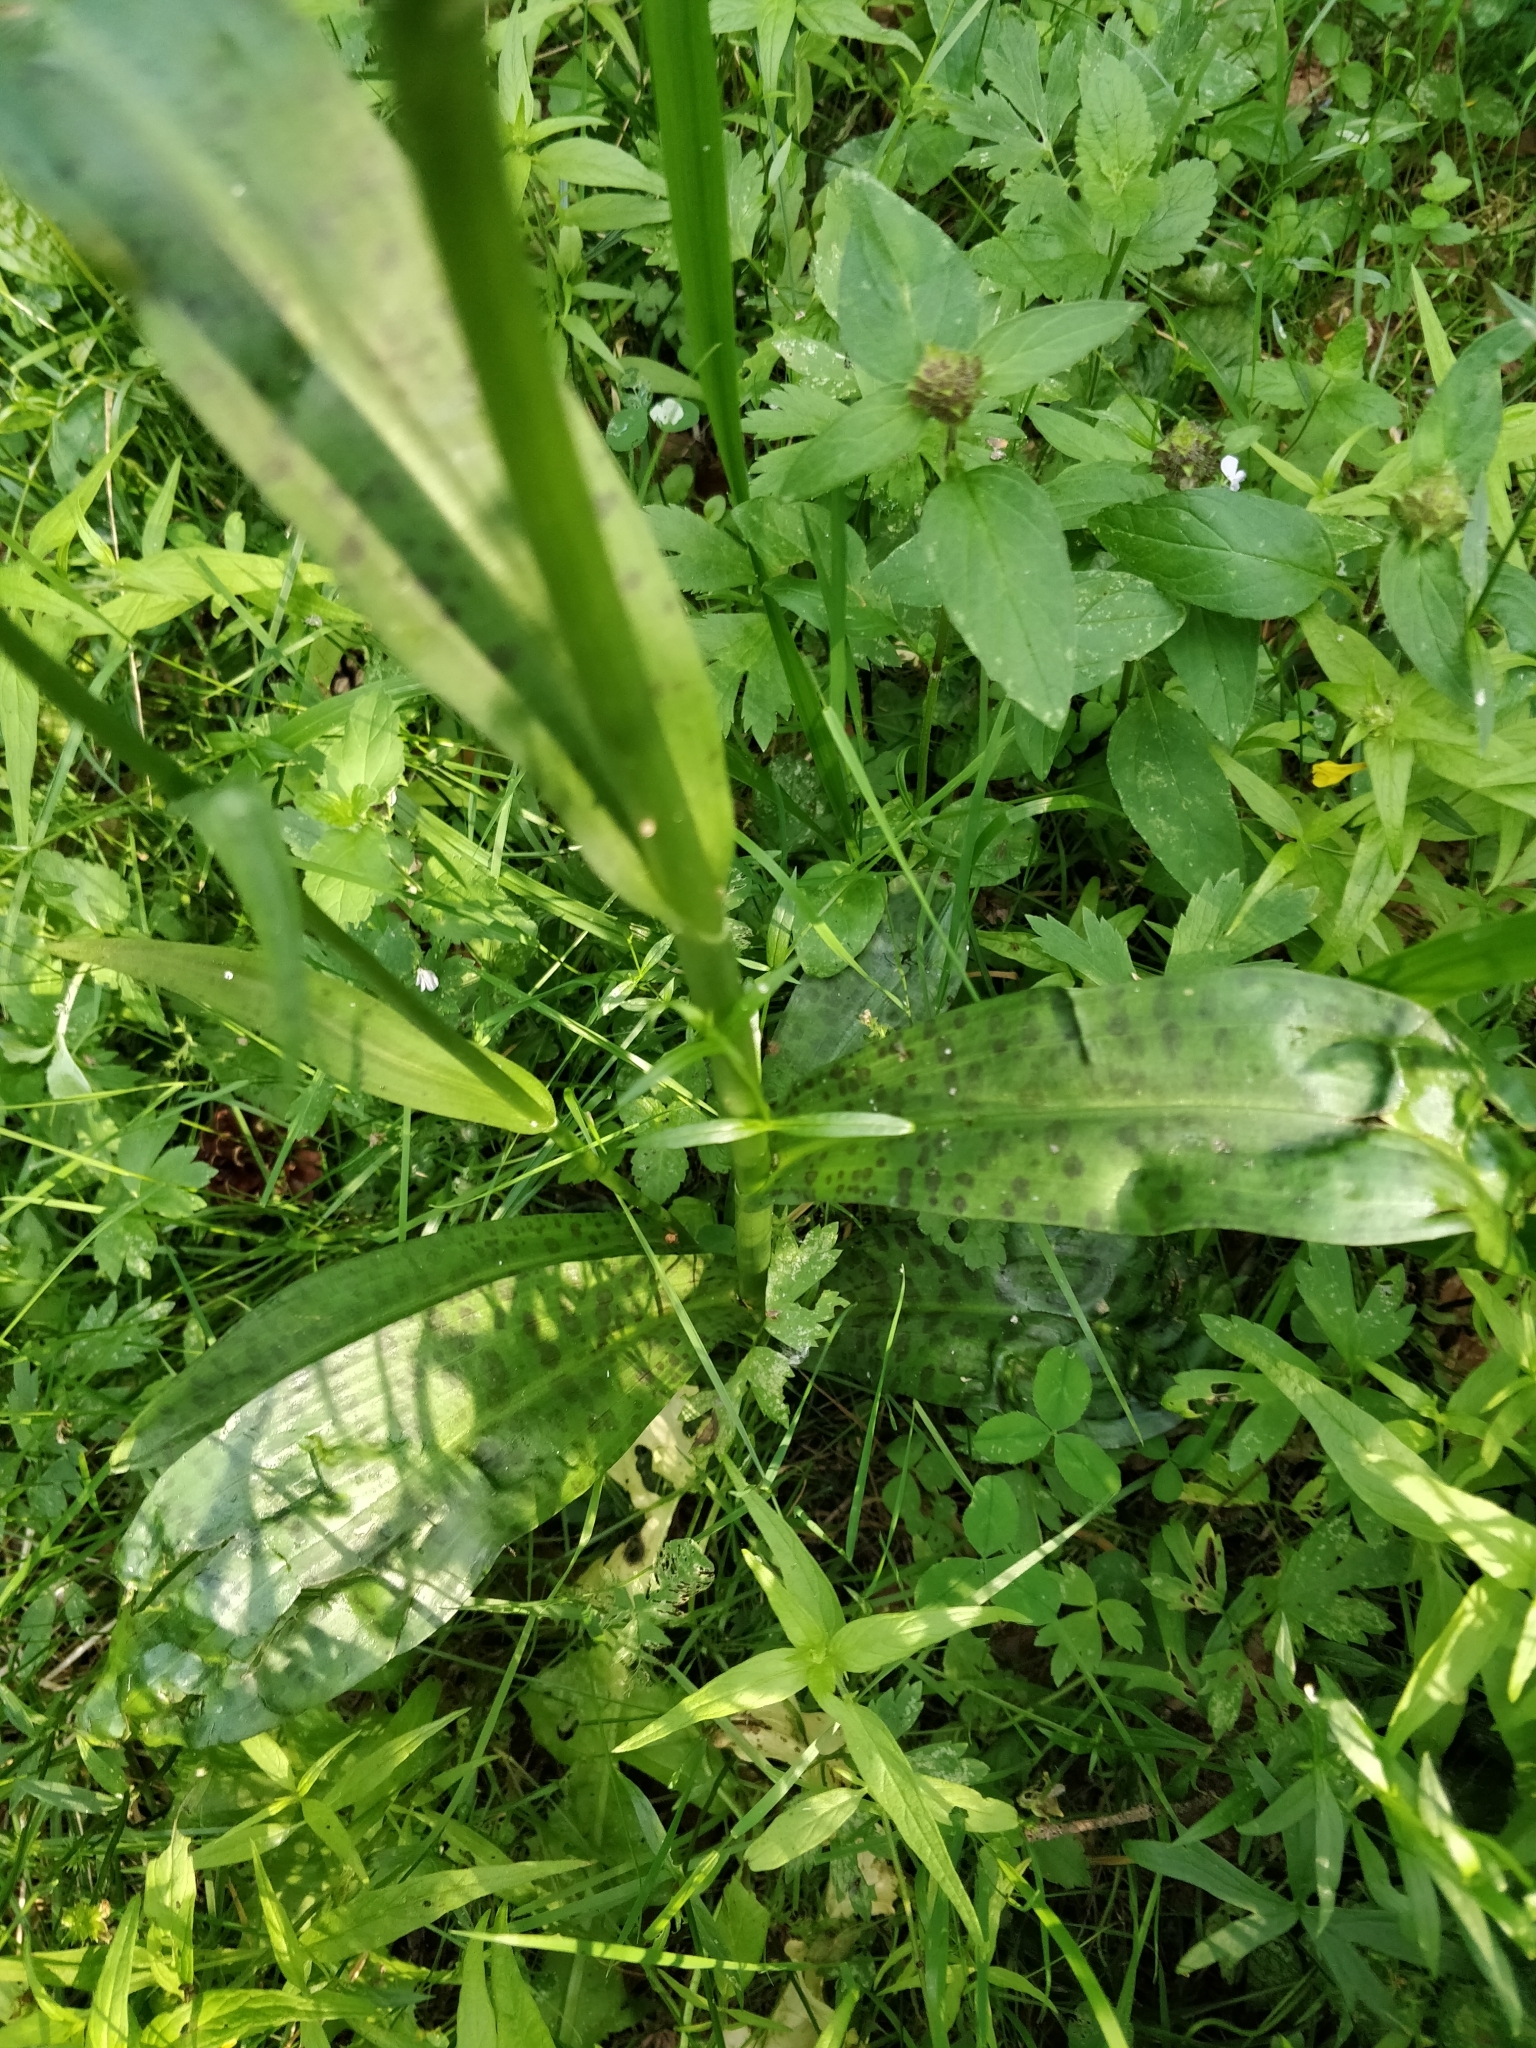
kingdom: Plantae
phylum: Tracheophyta
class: Liliopsida
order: Asparagales
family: Orchidaceae
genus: Dactylorhiza
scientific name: Dactylorhiza maculata
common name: Heath spotted-orchid
